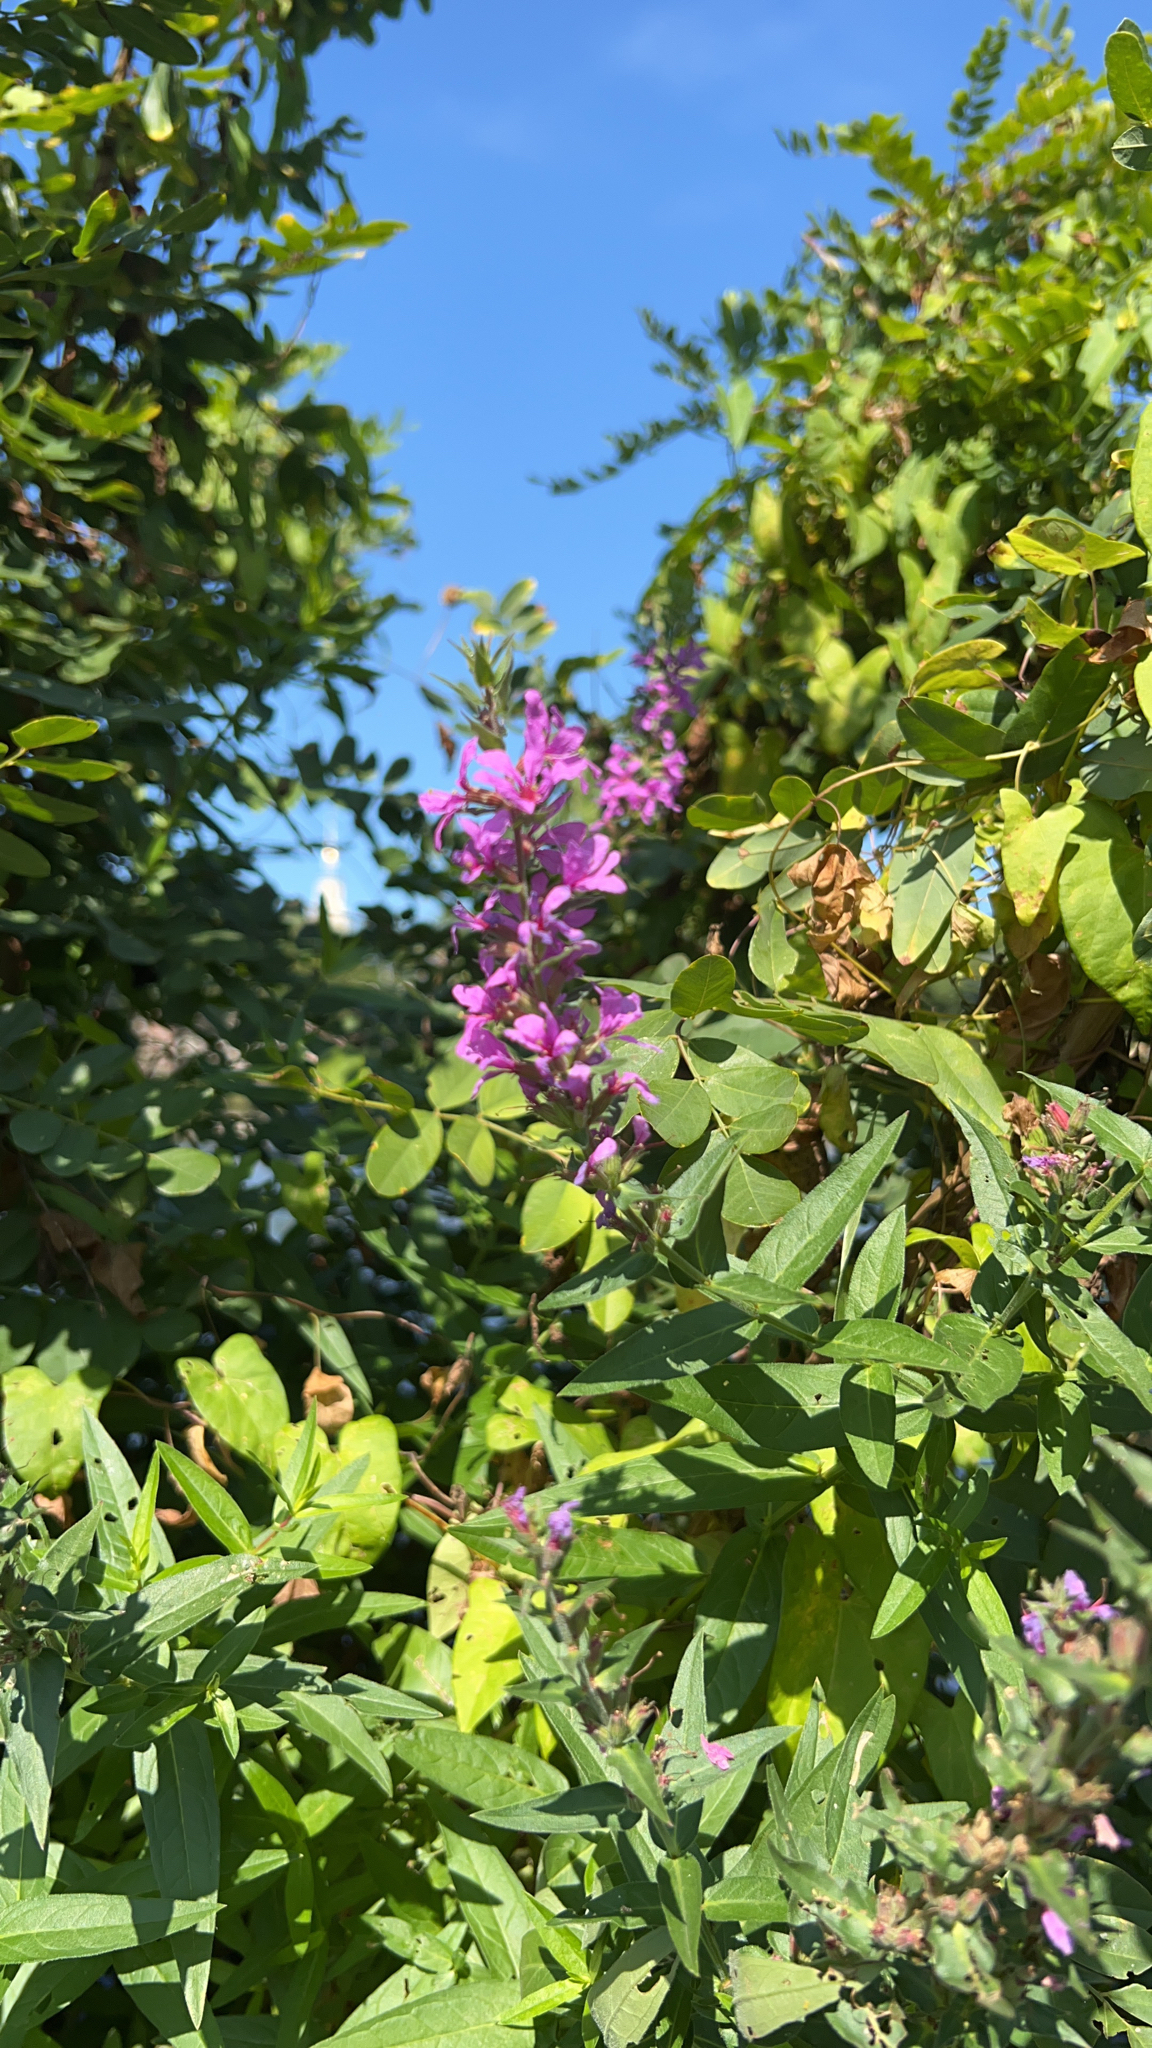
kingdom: Plantae
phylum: Tracheophyta
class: Magnoliopsida
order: Myrtales
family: Lythraceae
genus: Lythrum
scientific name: Lythrum salicaria
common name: Purple loosestrife
